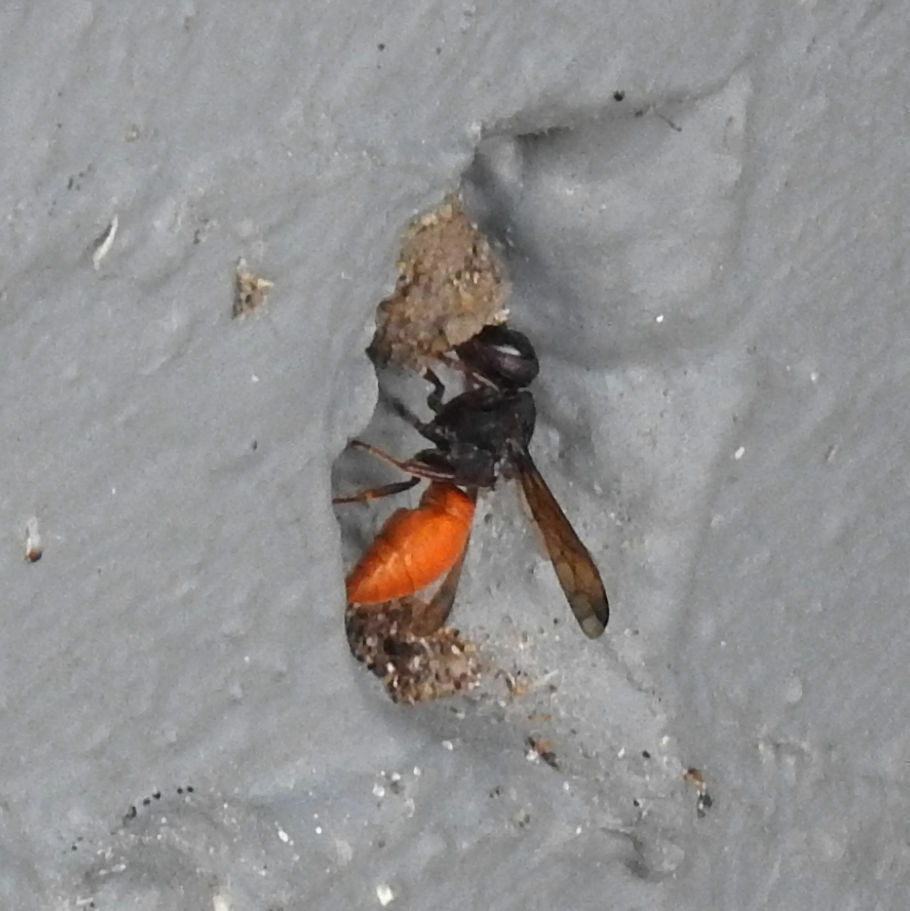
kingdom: Animalia
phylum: Arthropoda
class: Insecta
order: Hymenoptera
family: Eumenidae
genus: Tricarinodynerus
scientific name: Tricarinodynerus guerinii
